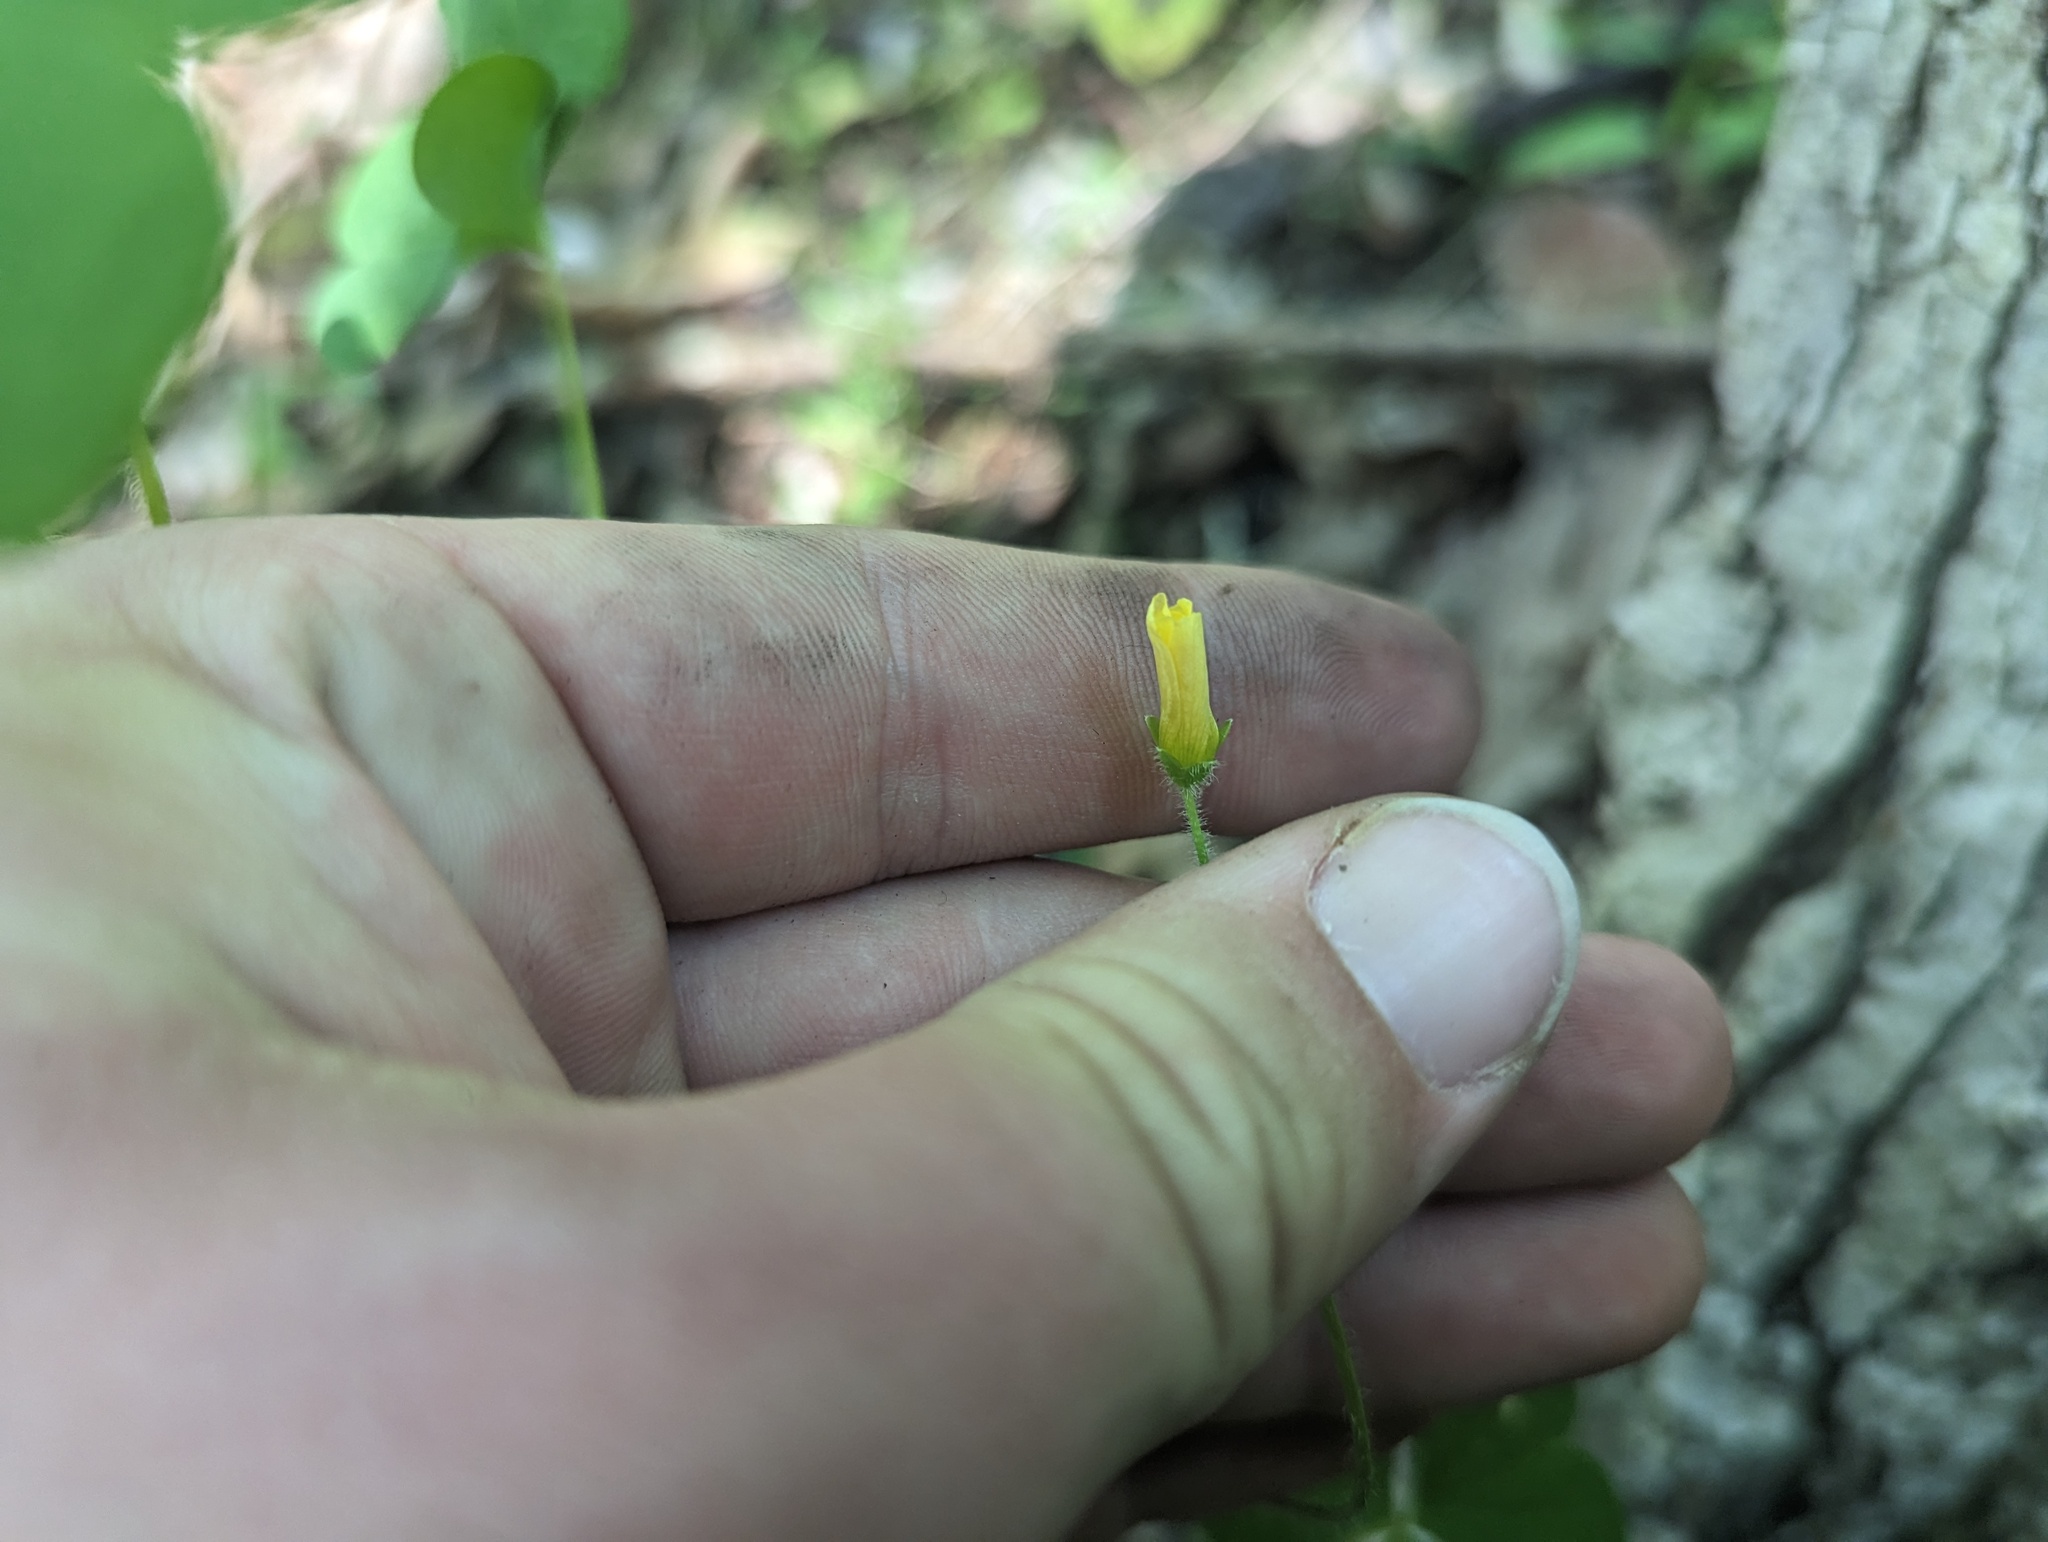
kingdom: Plantae
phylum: Tracheophyta
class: Magnoliopsida
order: Oxalidales
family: Oxalidaceae
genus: Oxalis
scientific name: Oxalis stricta
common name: Upright yellow-sorrel
